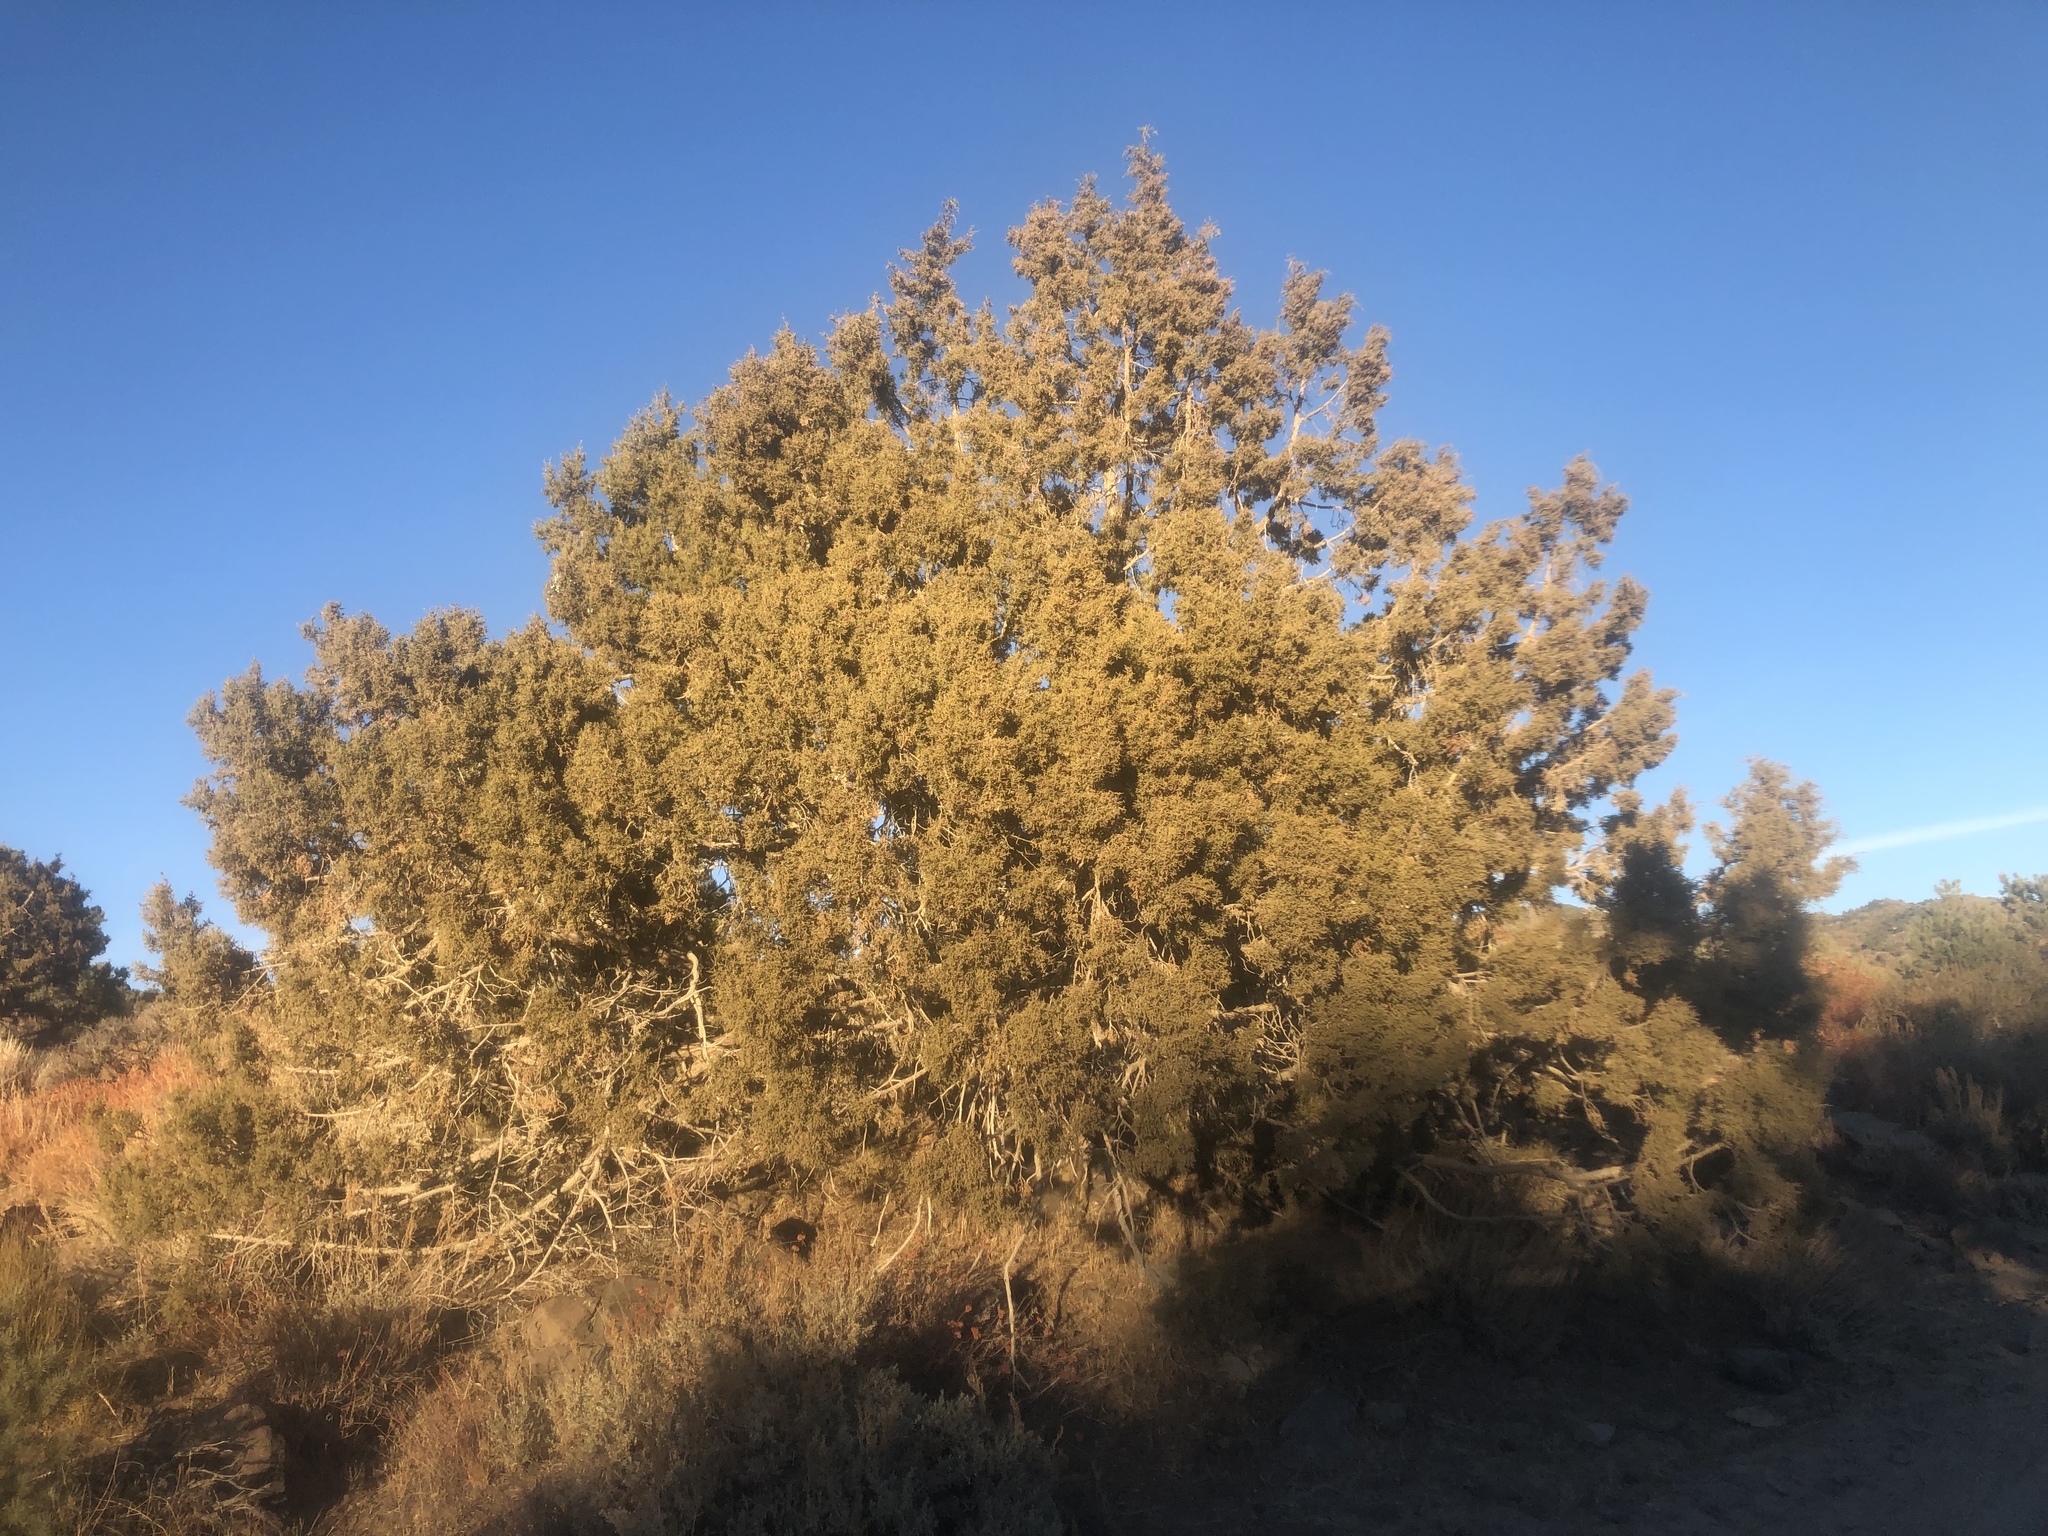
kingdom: Plantae
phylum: Tracheophyta
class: Pinopsida
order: Pinales
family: Cupressaceae
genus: Juniperus
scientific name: Juniperus osteosperma
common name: Utah juniper
